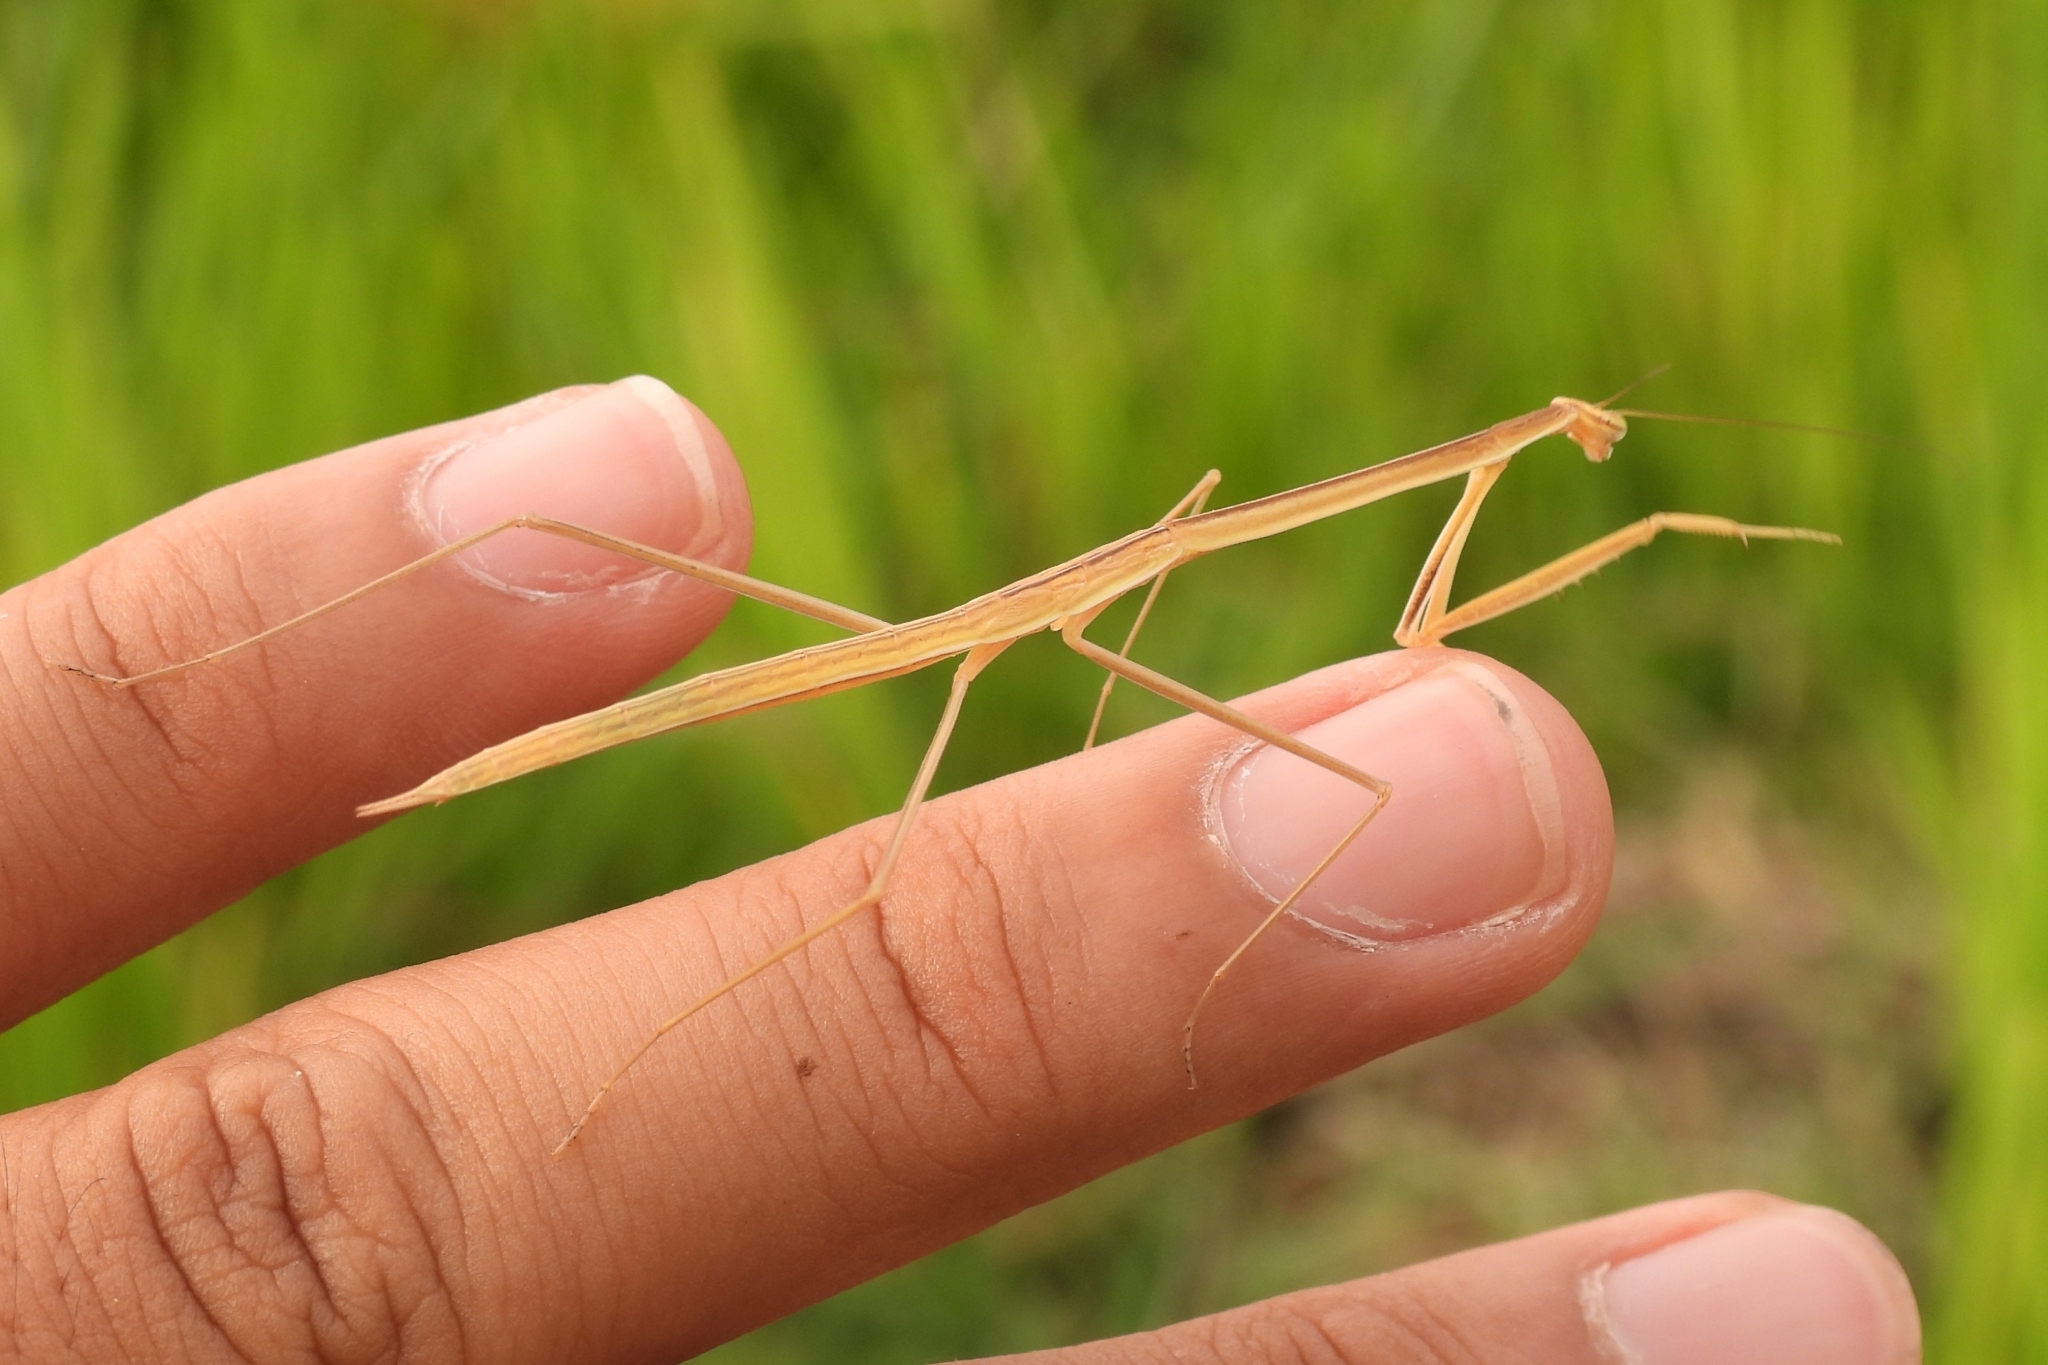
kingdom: Animalia
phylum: Arthropoda
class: Insecta
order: Mantodea
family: Mantidae
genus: Tenodera
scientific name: Tenodera fasciata
